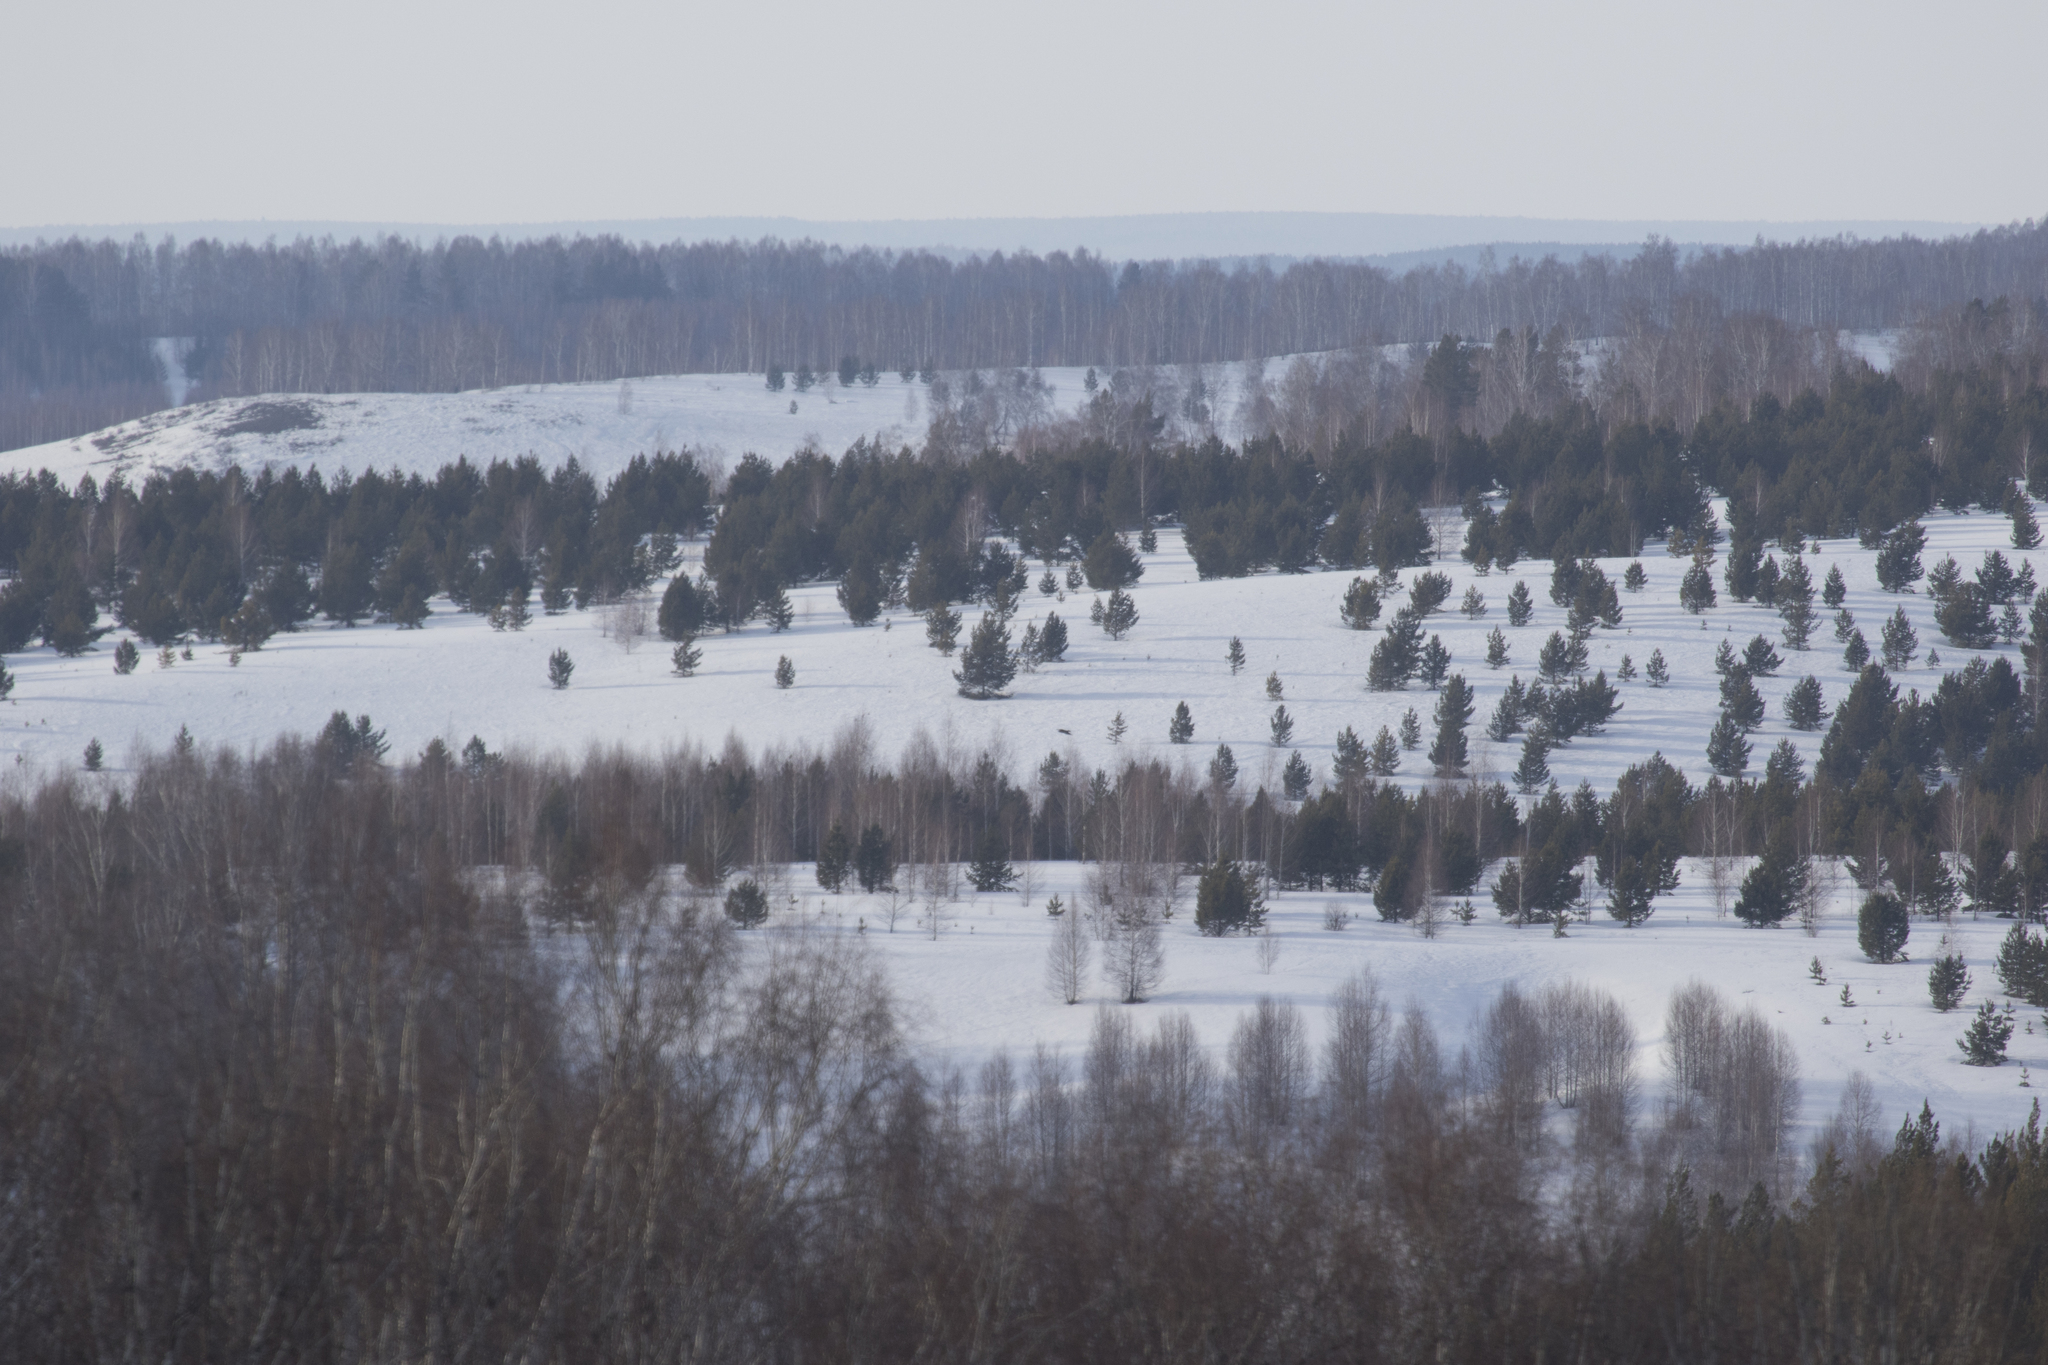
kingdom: Plantae
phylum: Tracheophyta
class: Pinopsida
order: Pinales
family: Pinaceae
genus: Pinus
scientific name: Pinus sylvestris
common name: Scots pine
